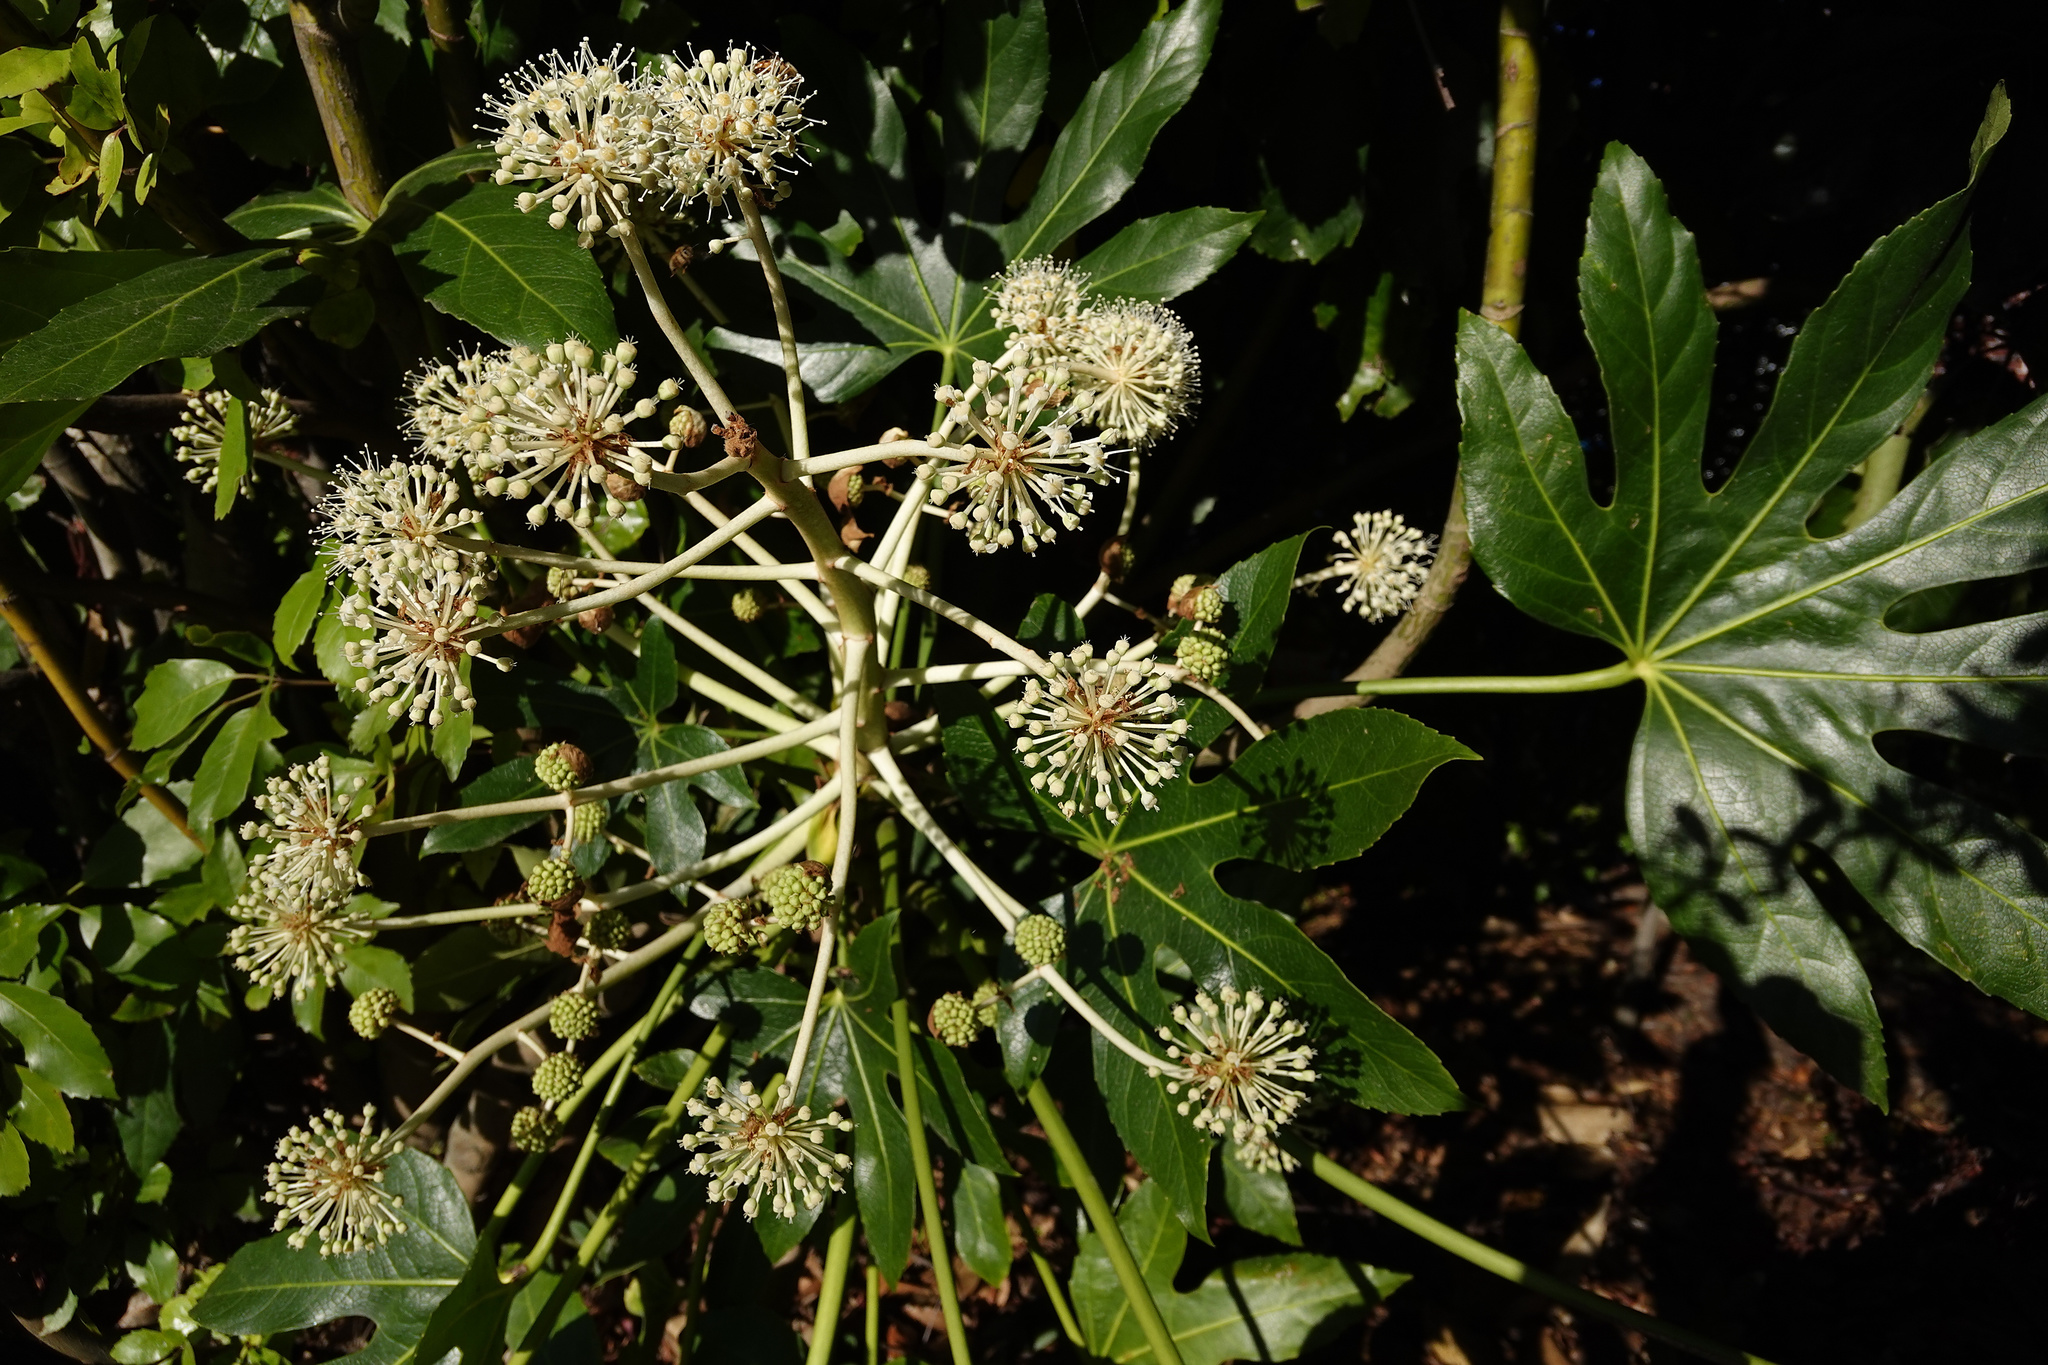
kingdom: Plantae
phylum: Tracheophyta
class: Magnoliopsida
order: Apiales
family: Araliaceae
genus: Fatsia
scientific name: Fatsia japonica
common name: Fatsia
